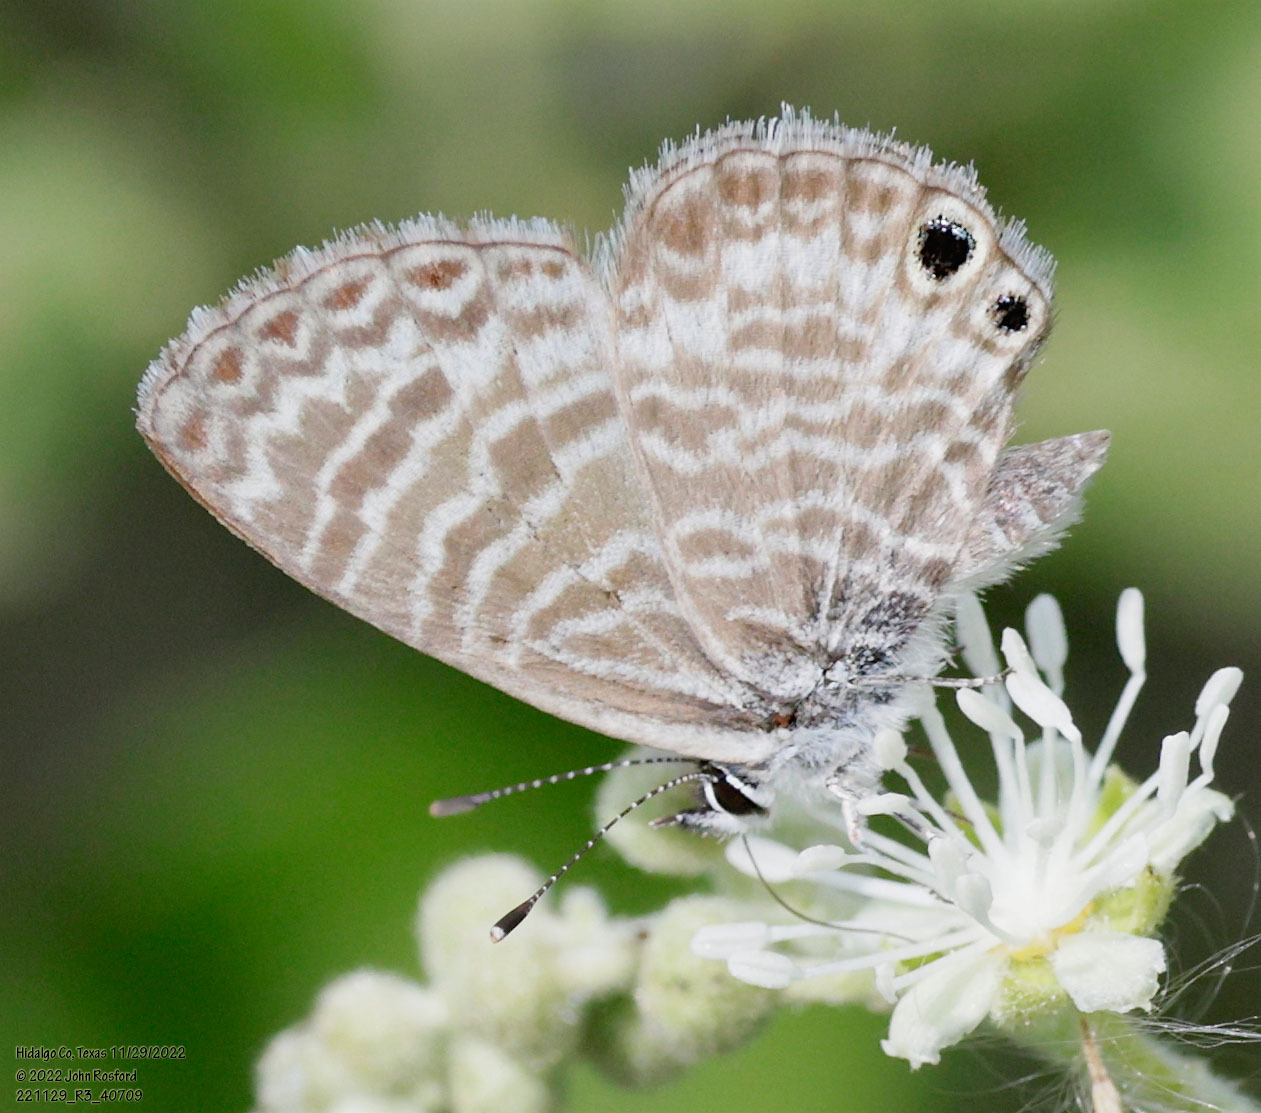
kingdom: Animalia
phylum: Arthropoda
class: Insecta
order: Lepidoptera
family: Lycaenidae
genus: Leptotes
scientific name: Leptotes marina
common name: Marine blue
